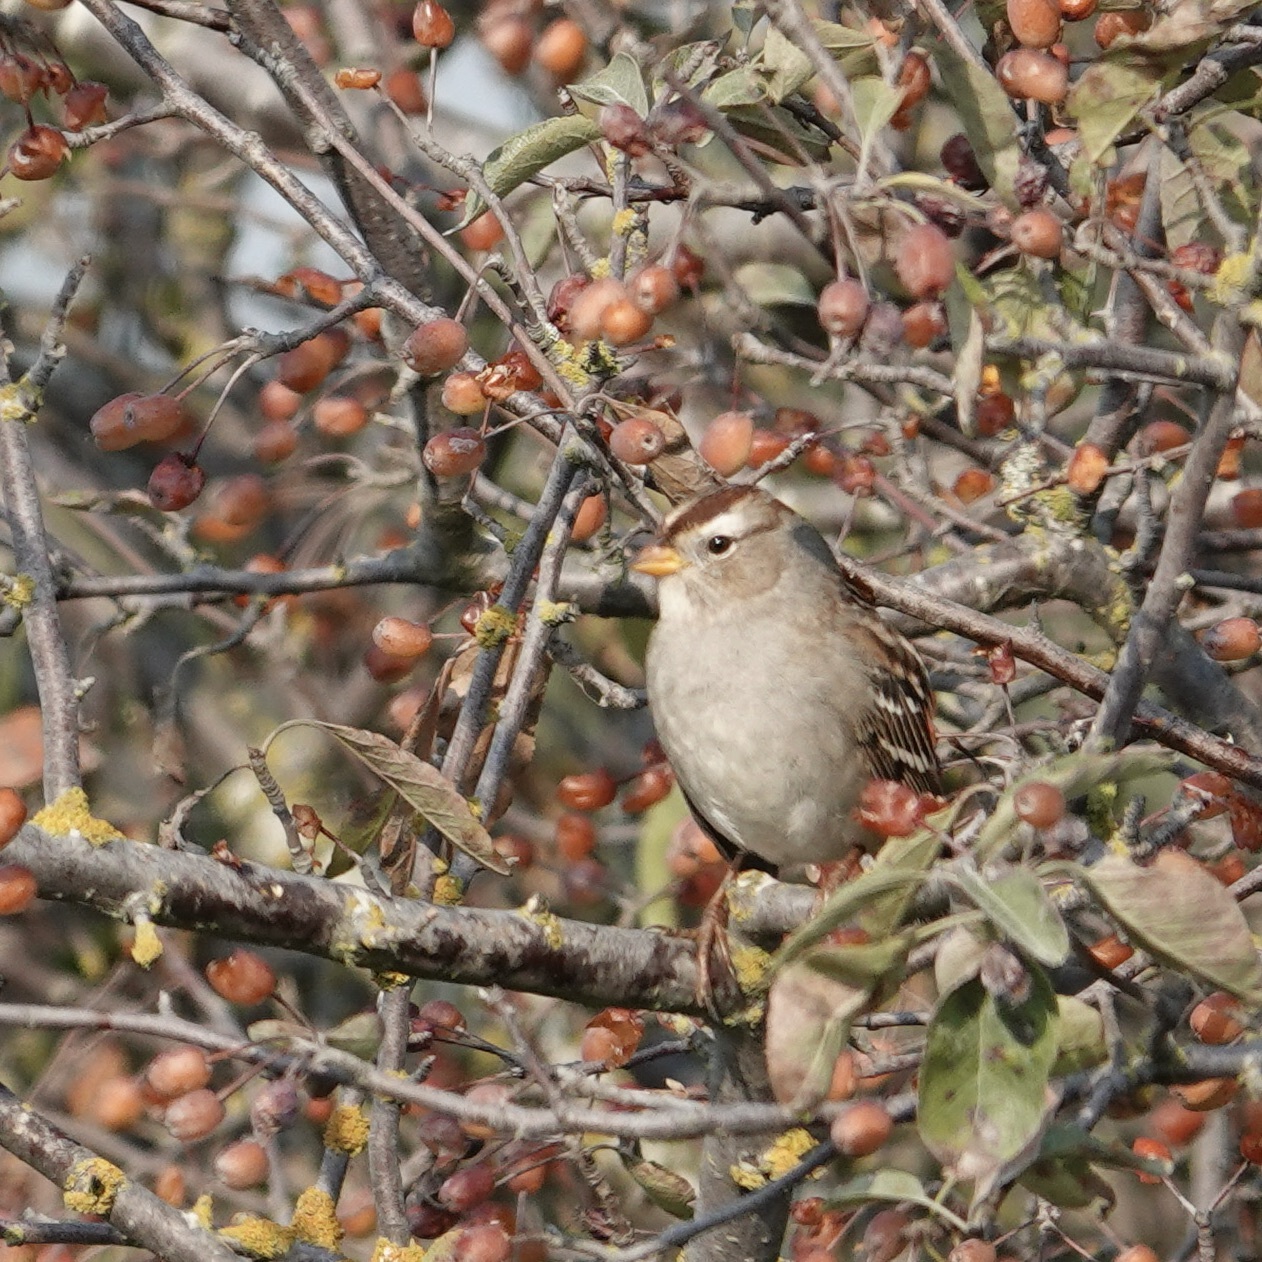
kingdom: Animalia
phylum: Chordata
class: Aves
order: Passeriformes
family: Passerellidae
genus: Zonotrichia
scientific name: Zonotrichia leucophrys
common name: White-crowned sparrow
